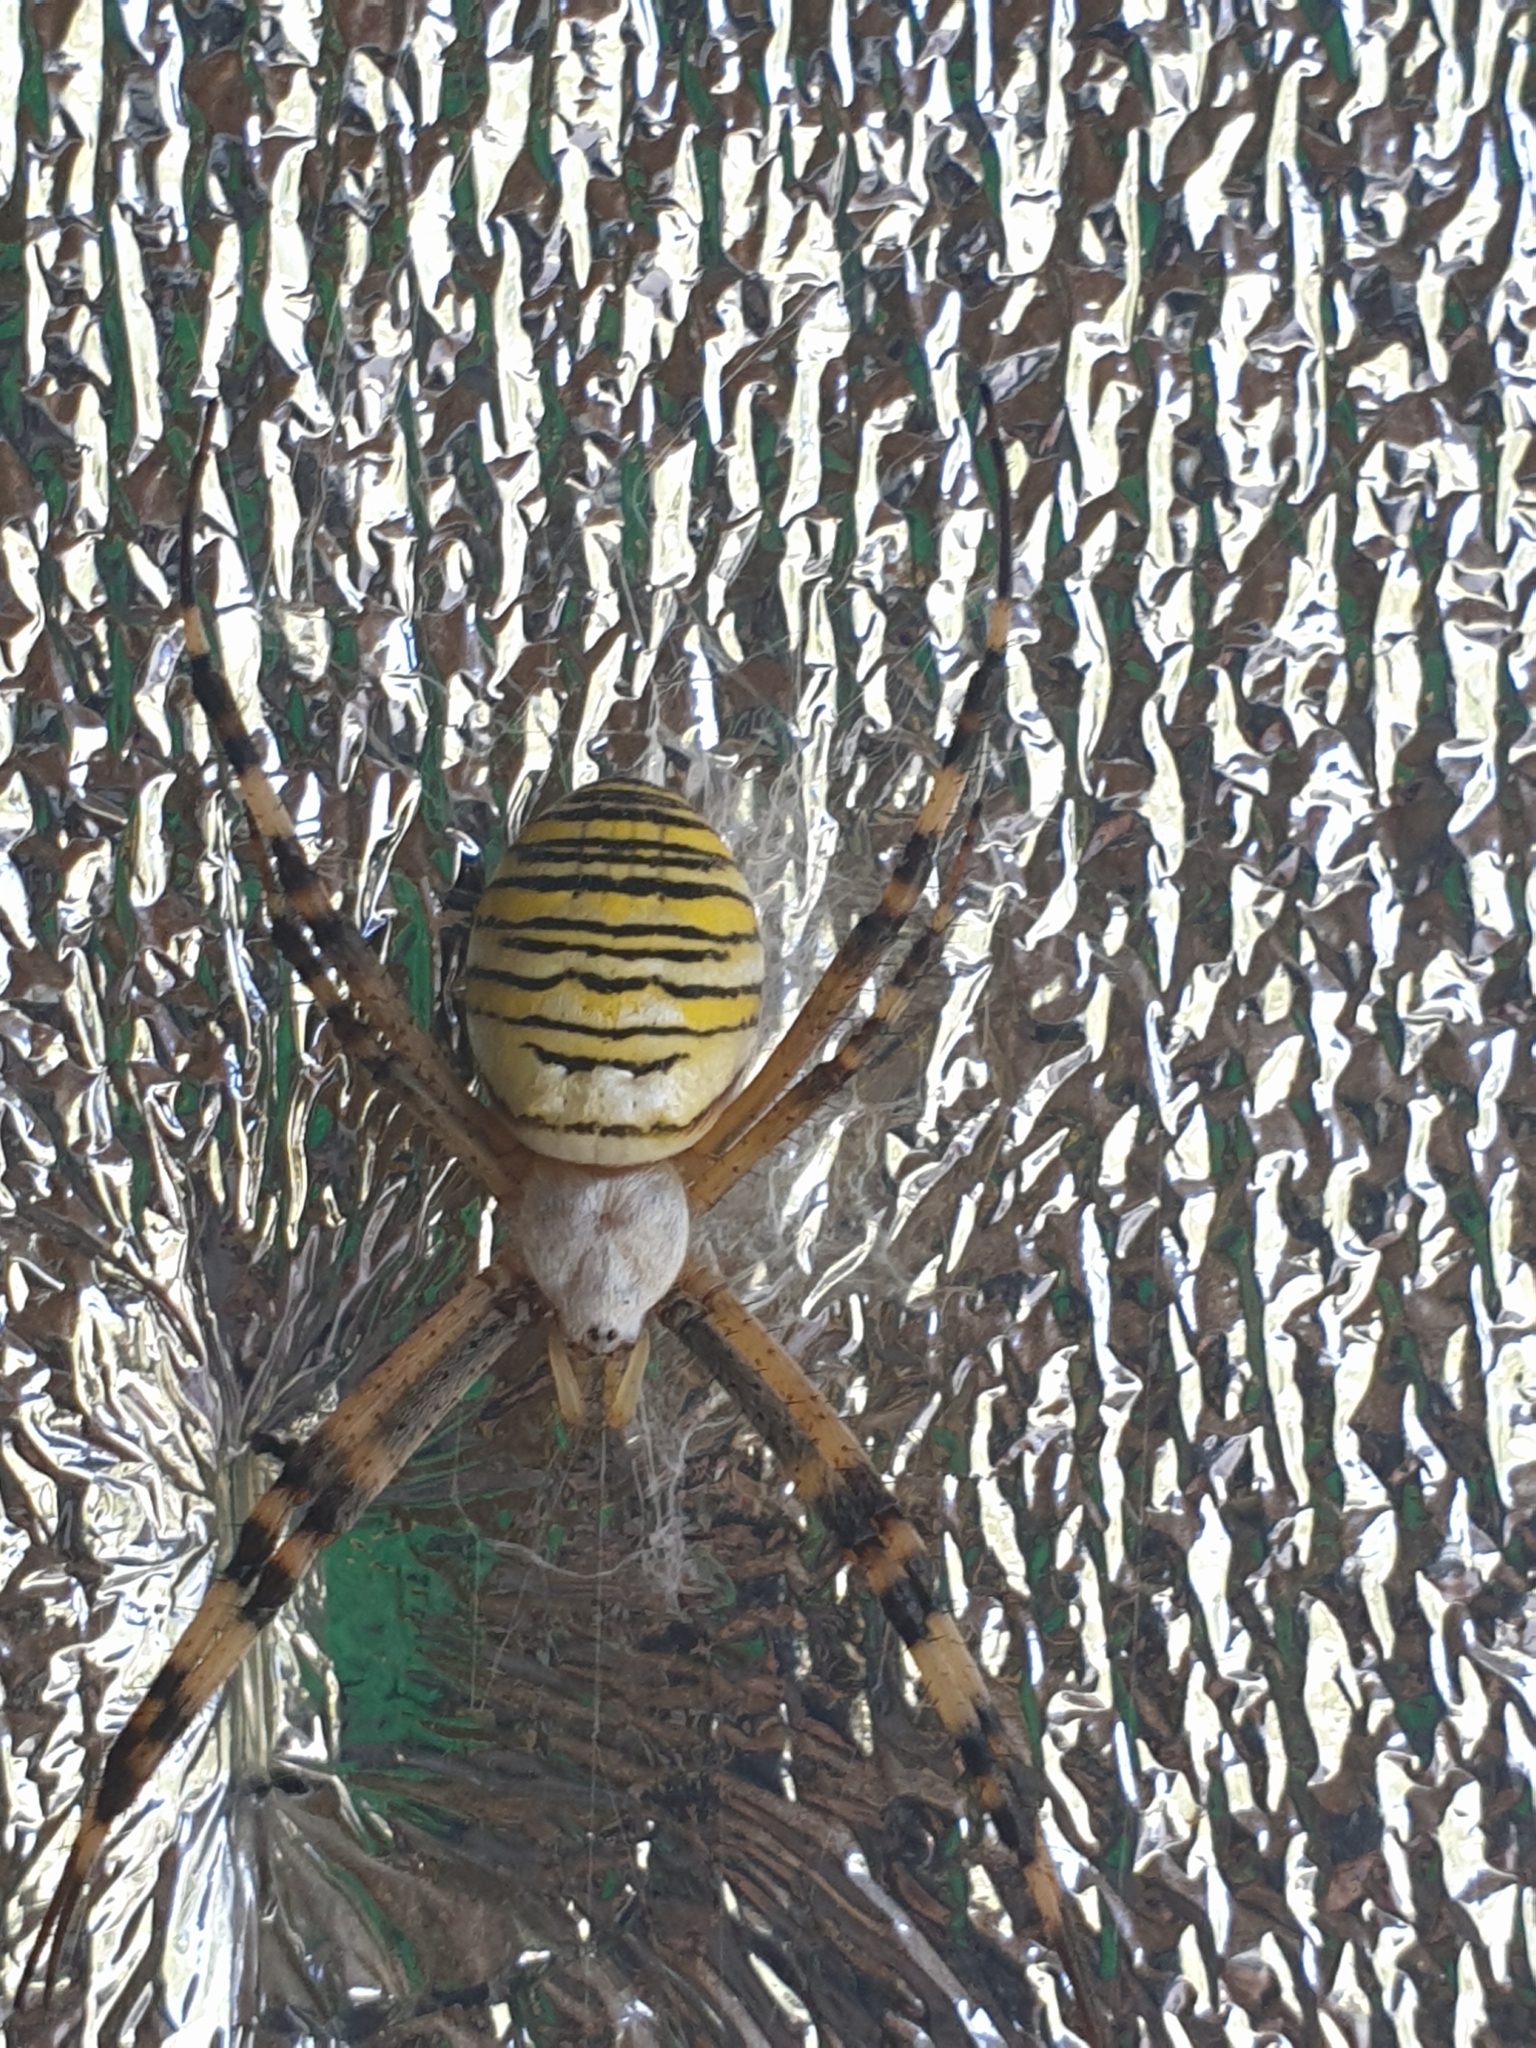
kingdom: Animalia
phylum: Arthropoda
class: Arachnida
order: Araneae
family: Araneidae
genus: Argiope
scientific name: Argiope bruennichi
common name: Wasp spider
